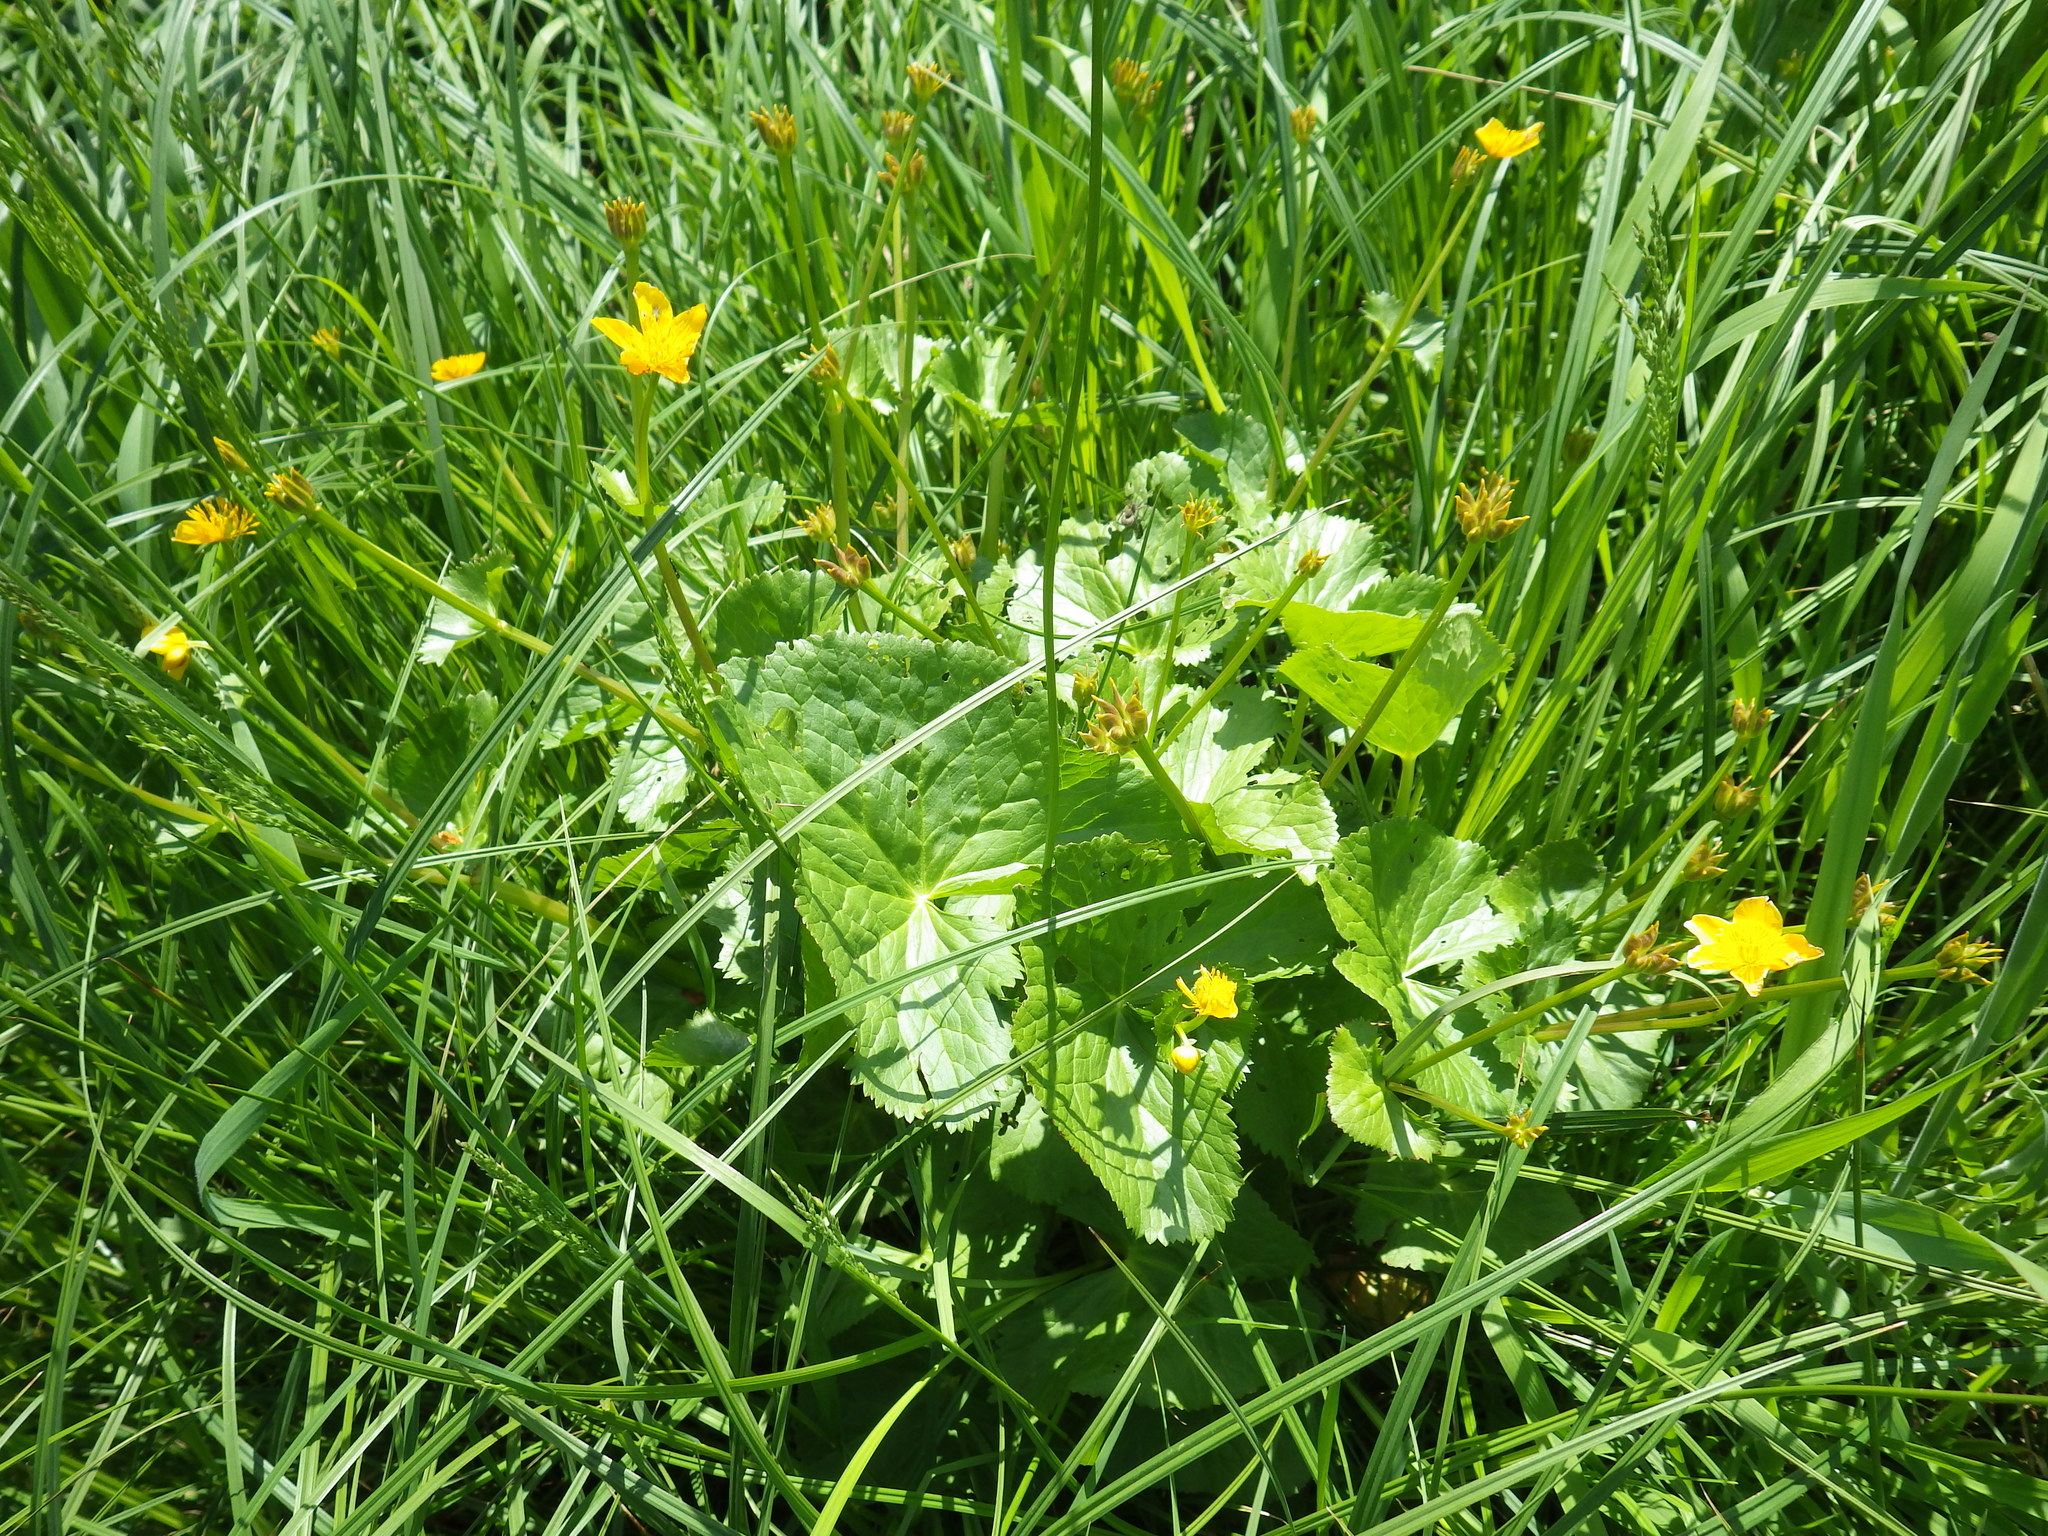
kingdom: Plantae
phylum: Tracheophyta
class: Magnoliopsida
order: Ranunculales
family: Ranunculaceae
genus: Caltha
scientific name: Caltha palustris
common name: Marsh marigold
